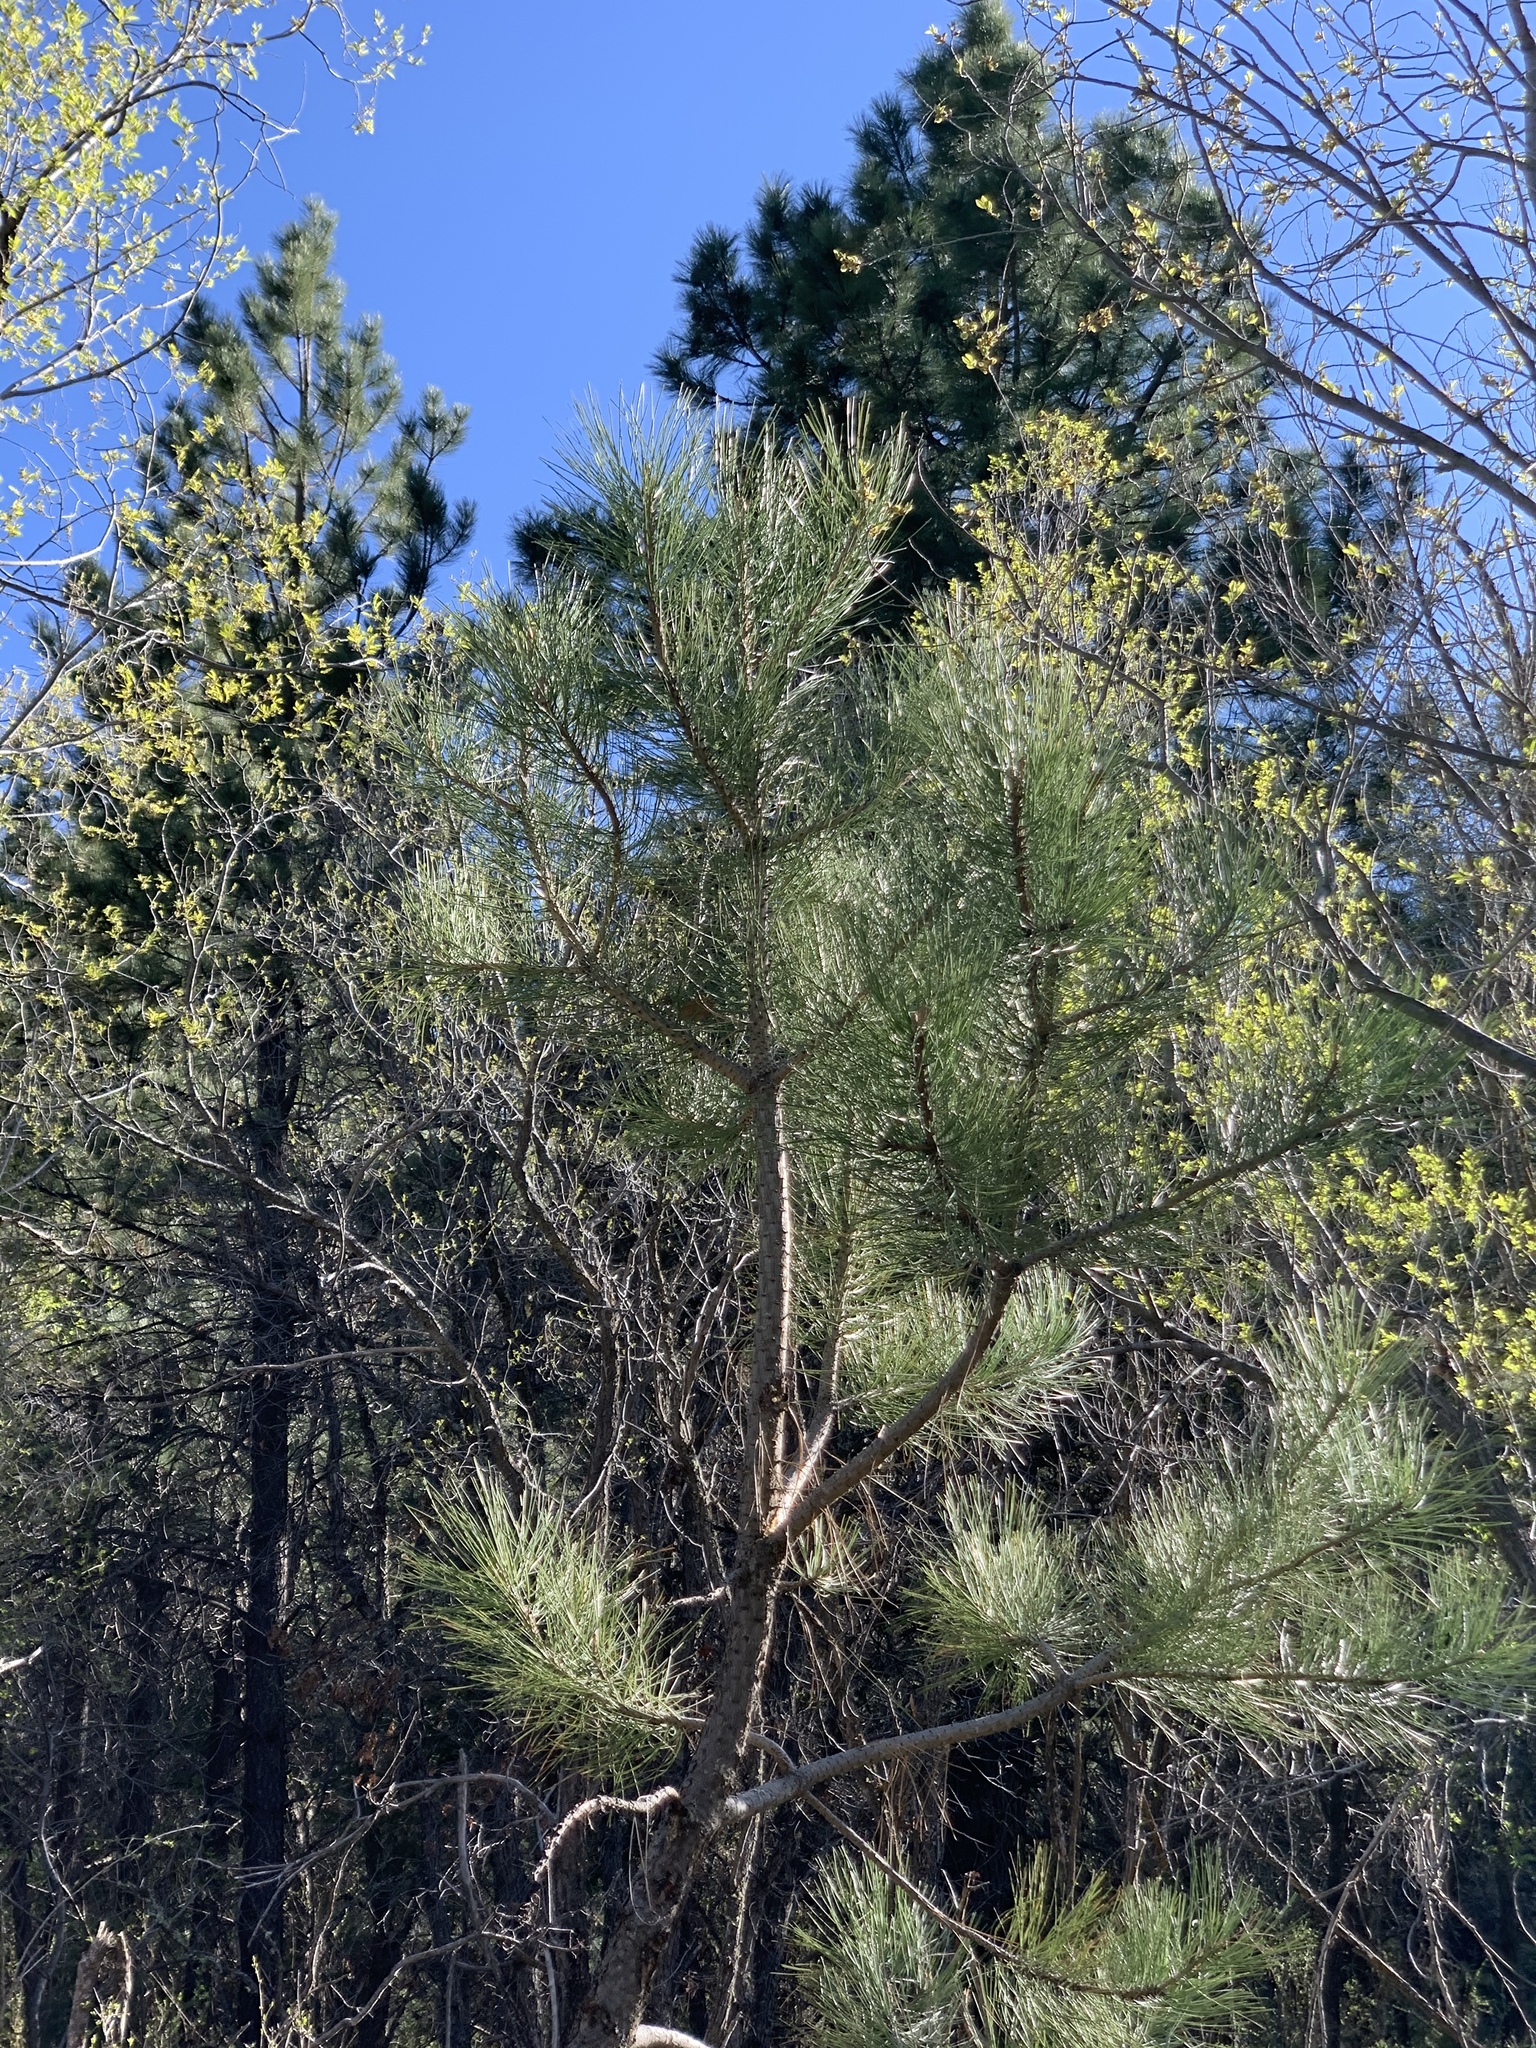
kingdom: Plantae
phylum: Tracheophyta
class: Pinopsida
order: Pinales
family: Pinaceae
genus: Pinus
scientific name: Pinus ponderosa
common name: Western yellow-pine
